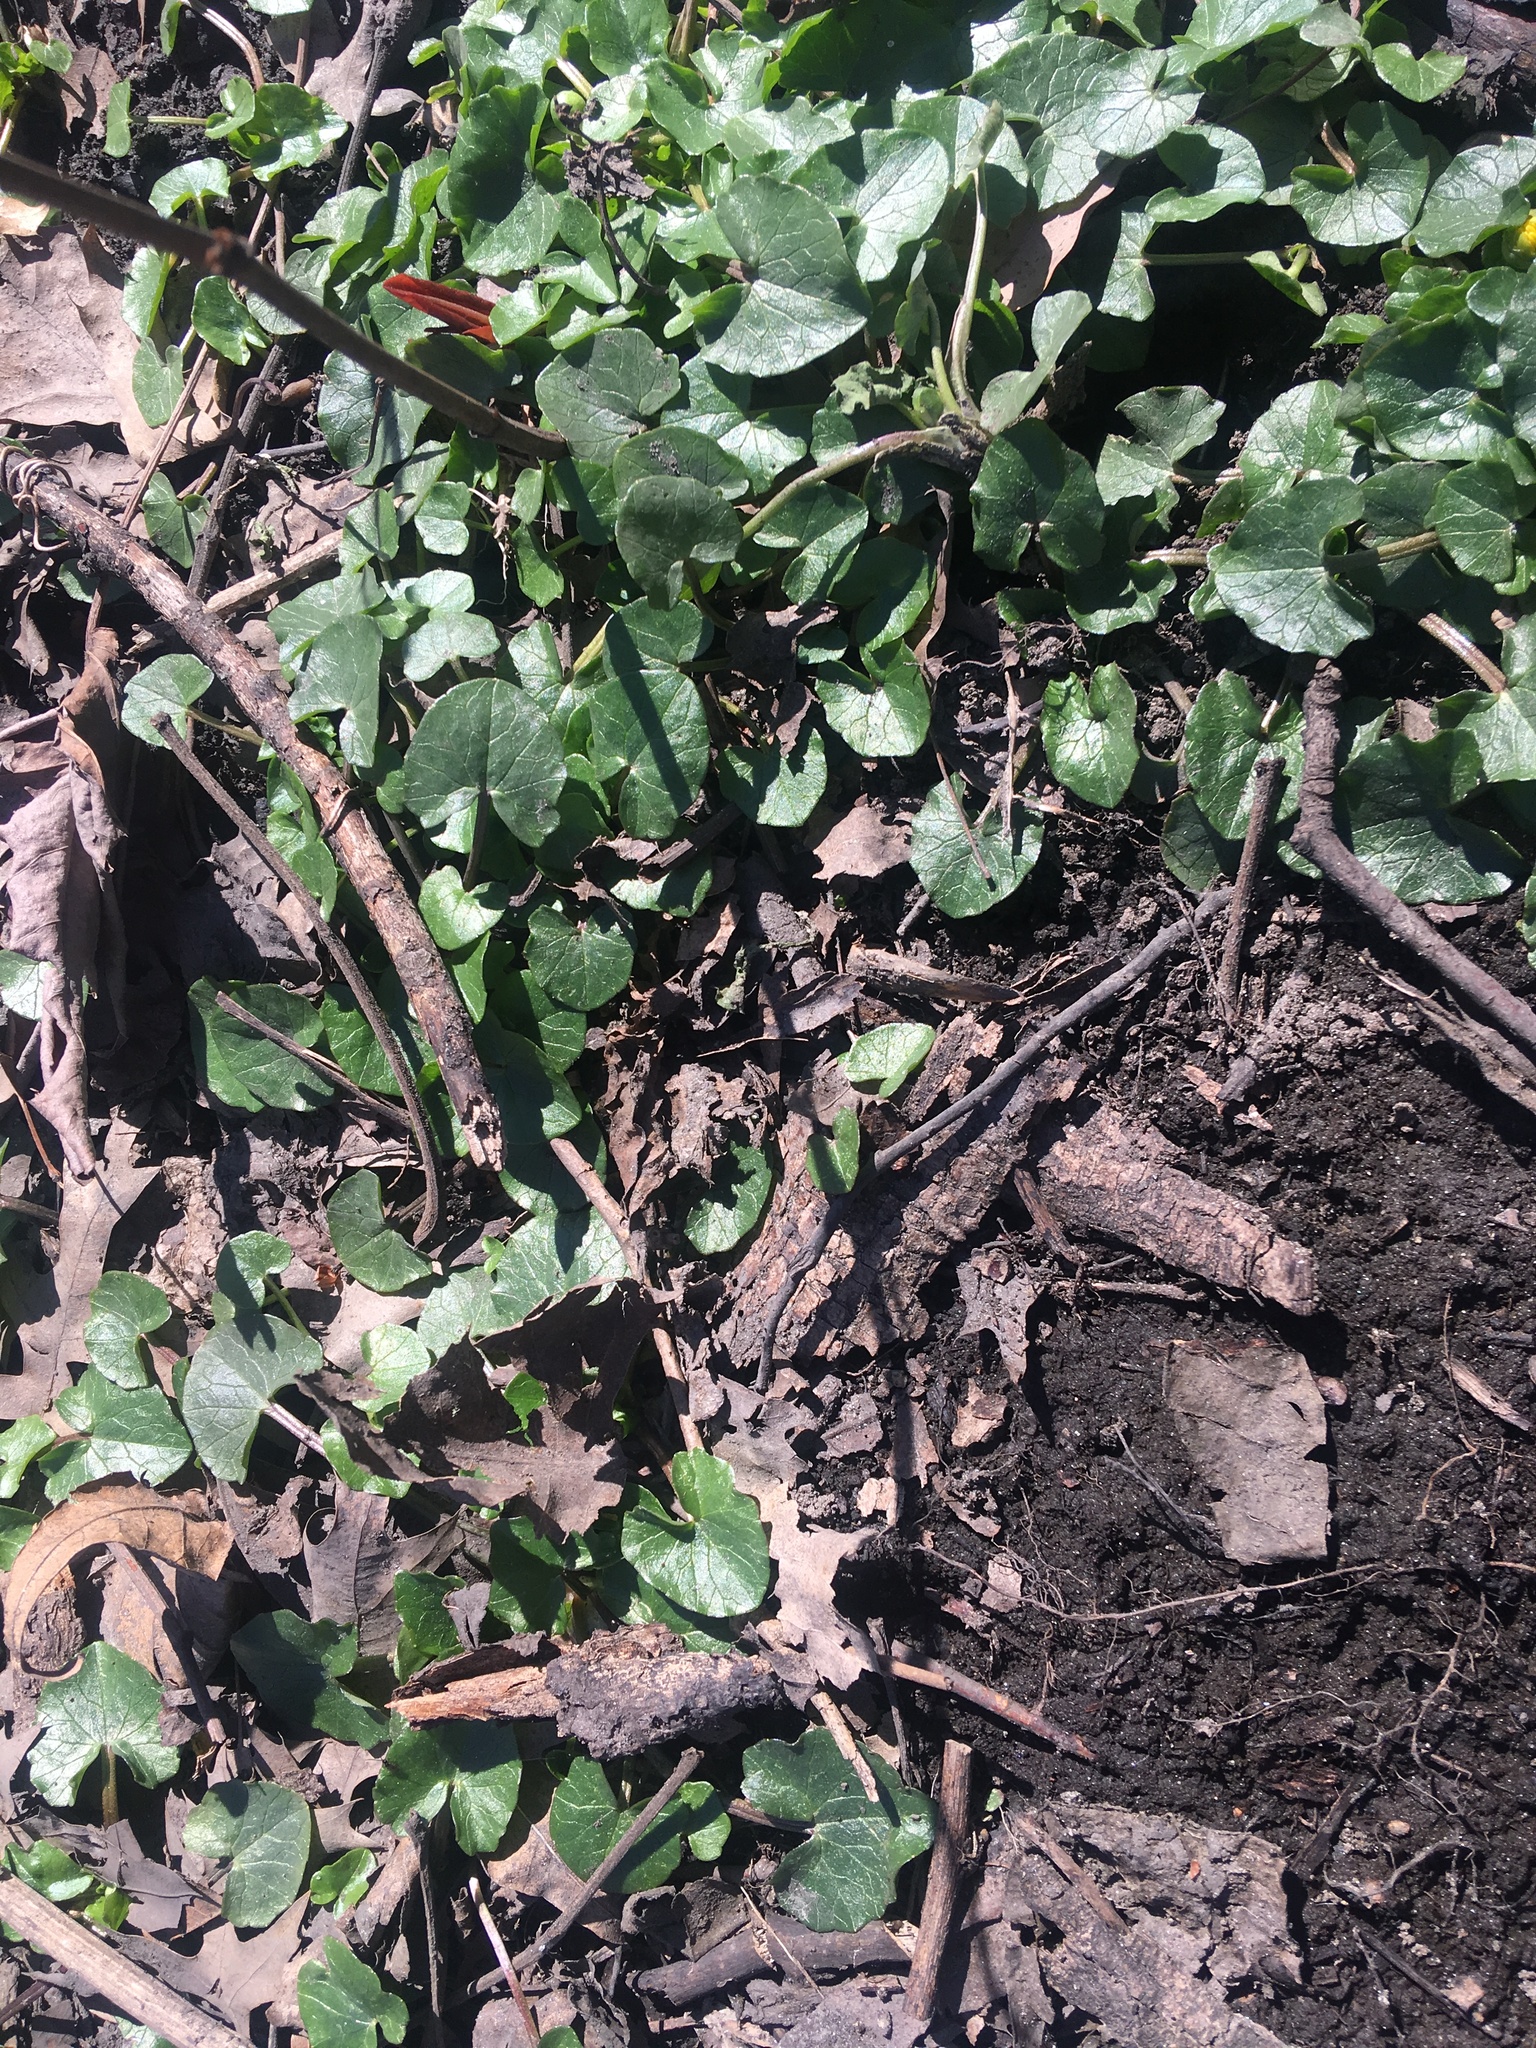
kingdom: Plantae
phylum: Tracheophyta
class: Magnoliopsida
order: Ranunculales
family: Ranunculaceae
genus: Ficaria
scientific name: Ficaria verna
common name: Lesser celandine
